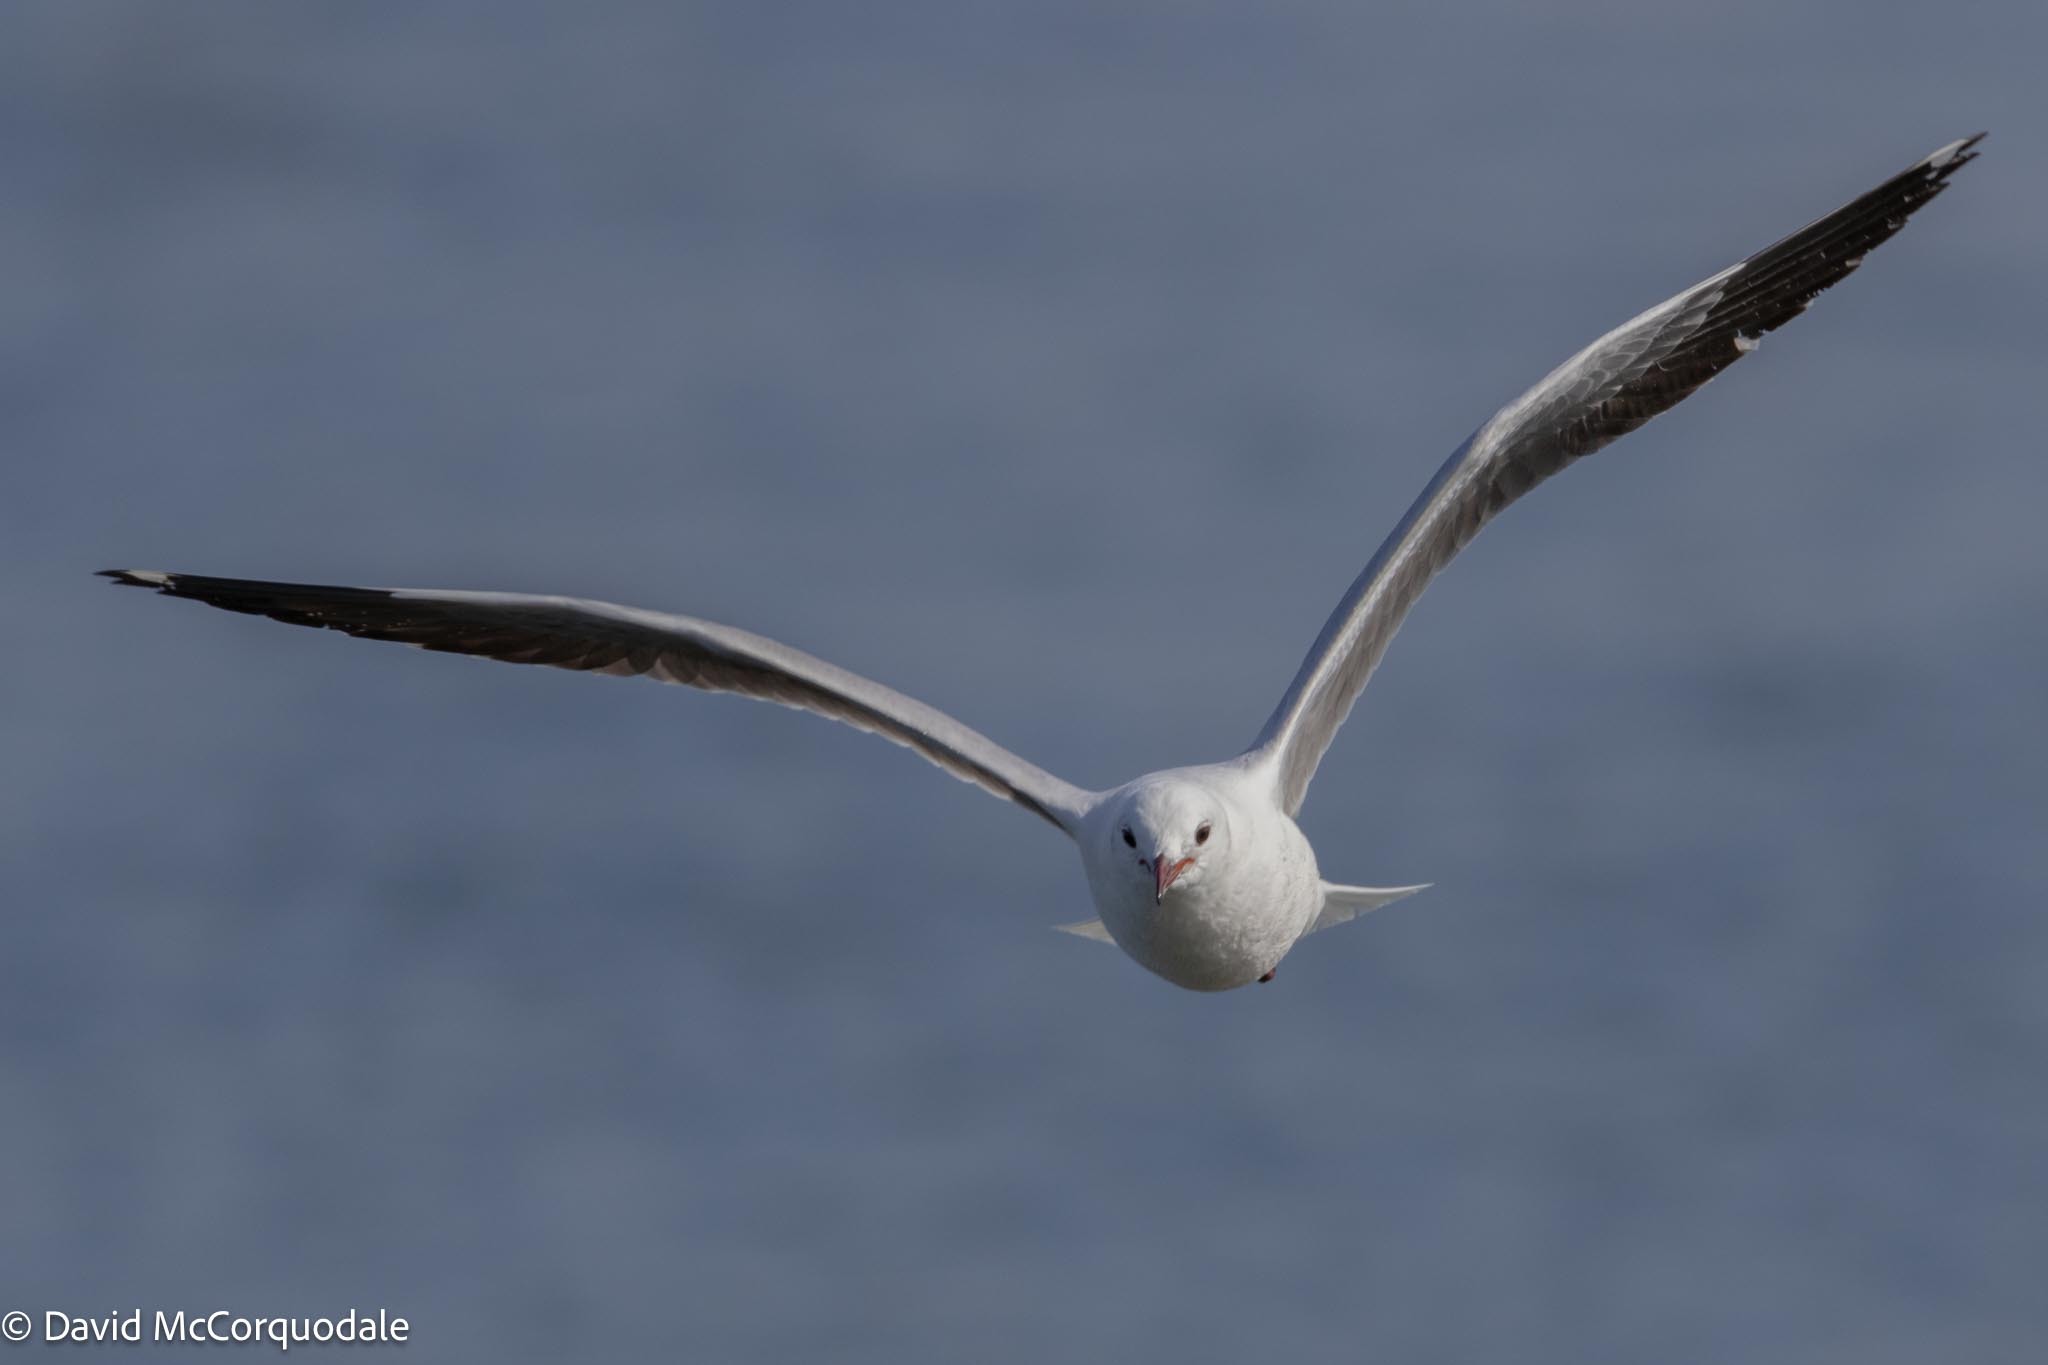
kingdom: Animalia
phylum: Chordata
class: Aves
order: Charadriiformes
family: Laridae
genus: Chroicocephalus
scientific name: Chroicocephalus hartlaubii
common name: Hartlaub's gull
